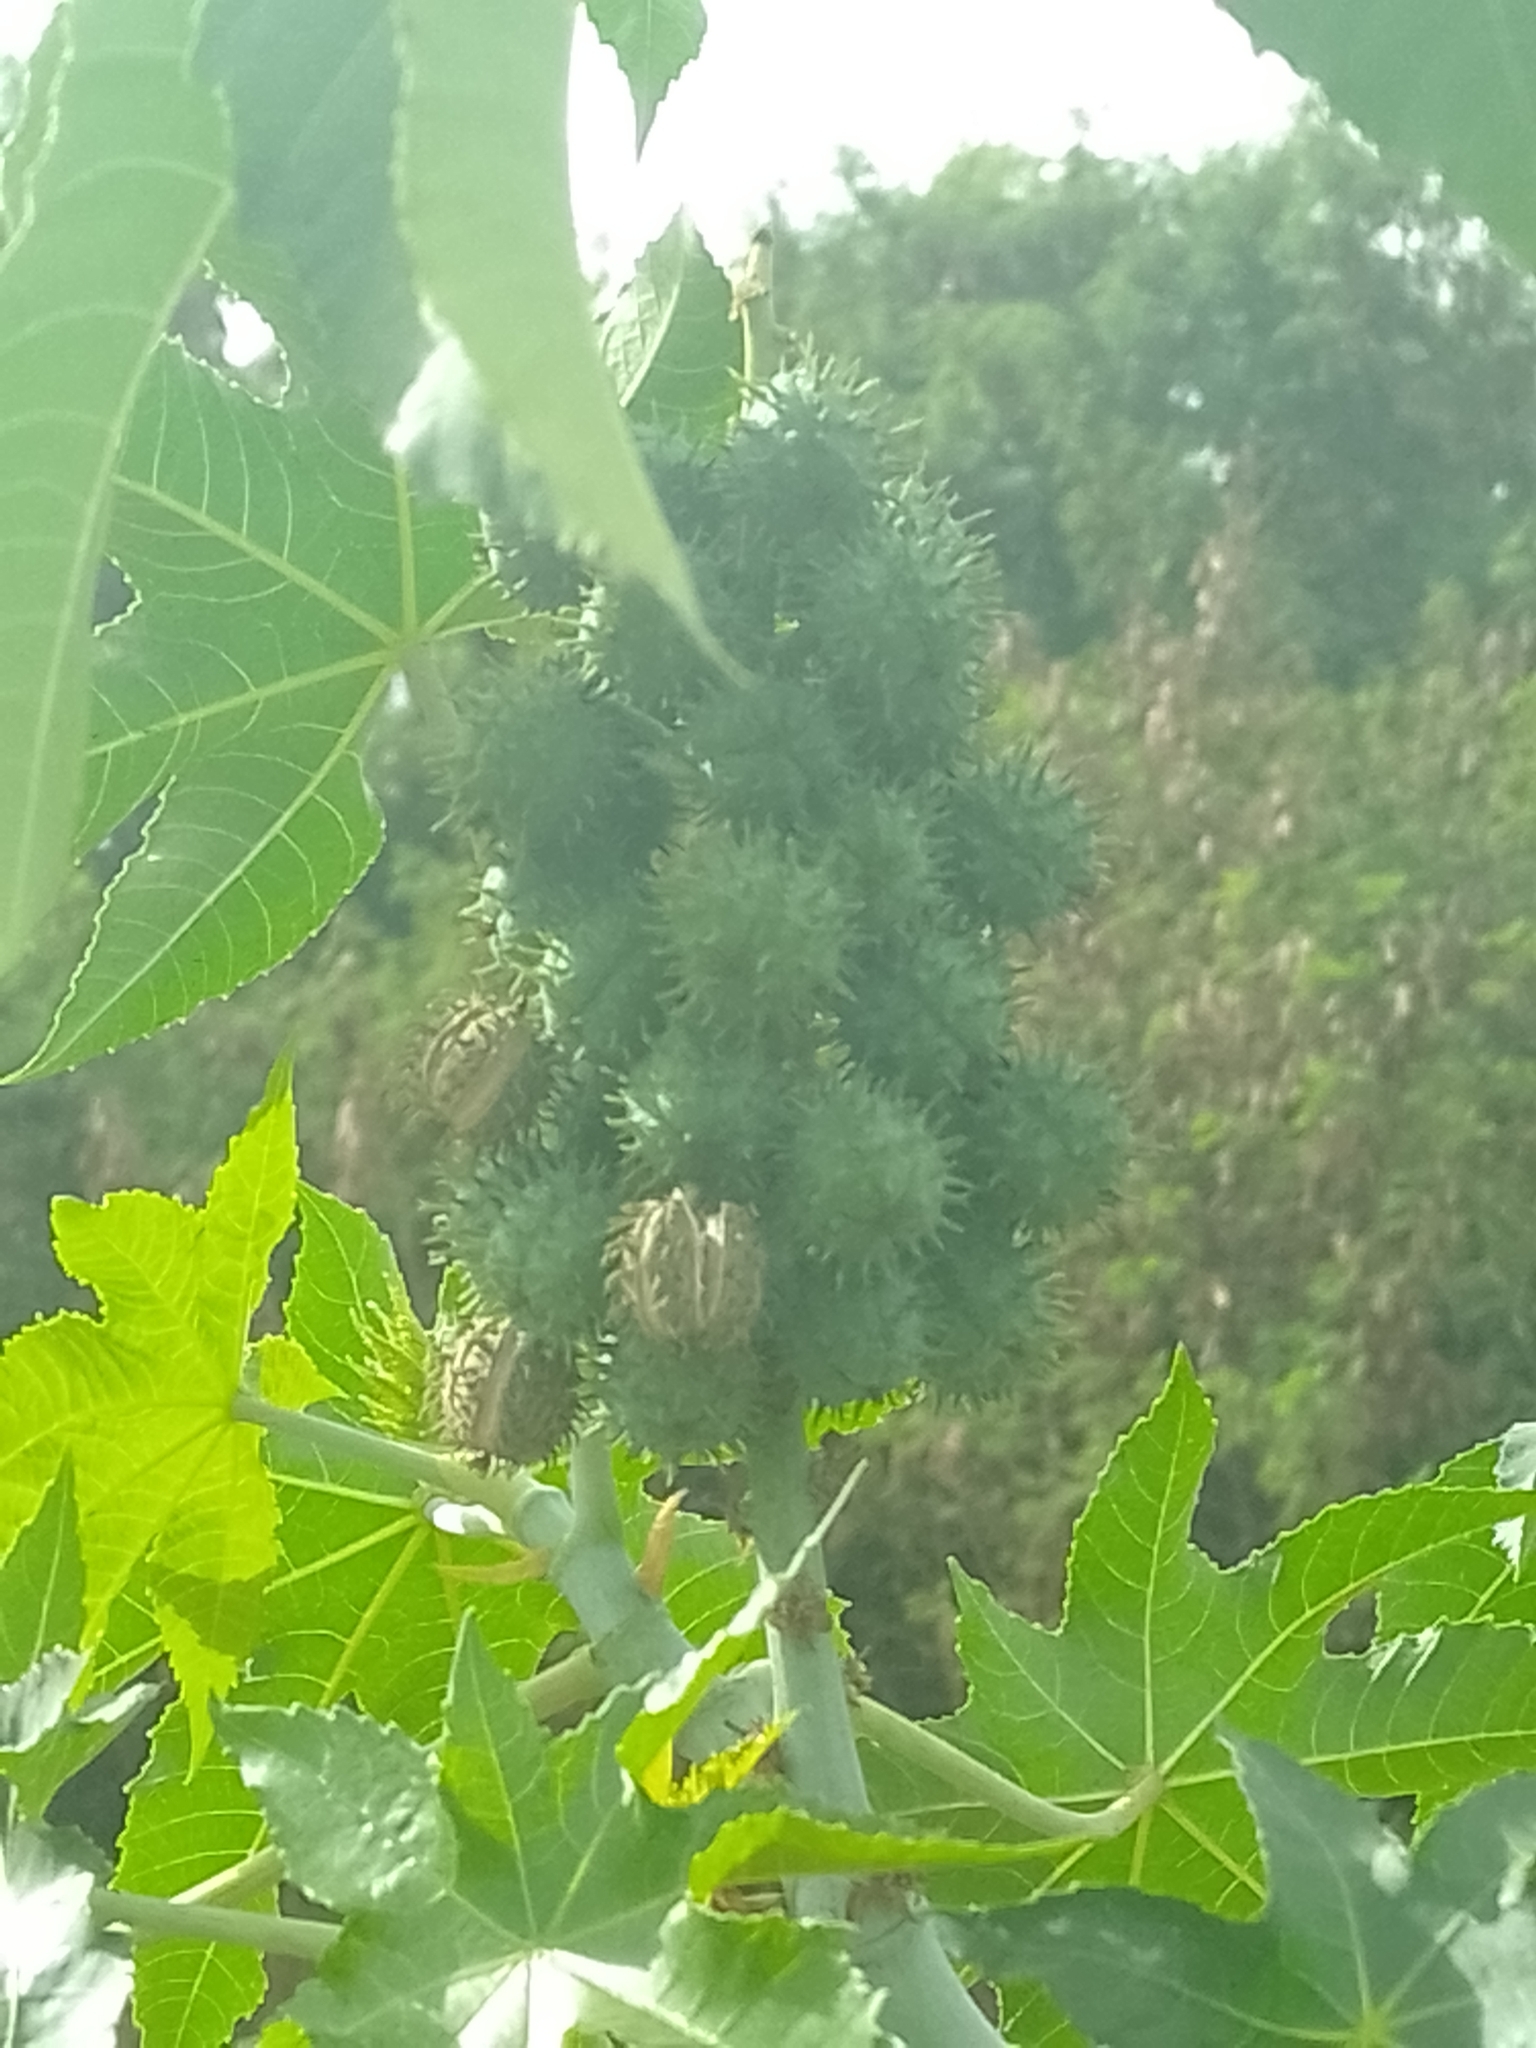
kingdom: Plantae
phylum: Tracheophyta
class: Magnoliopsida
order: Malpighiales
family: Euphorbiaceae
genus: Ricinus
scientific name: Ricinus communis
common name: Castor-oil-plant
